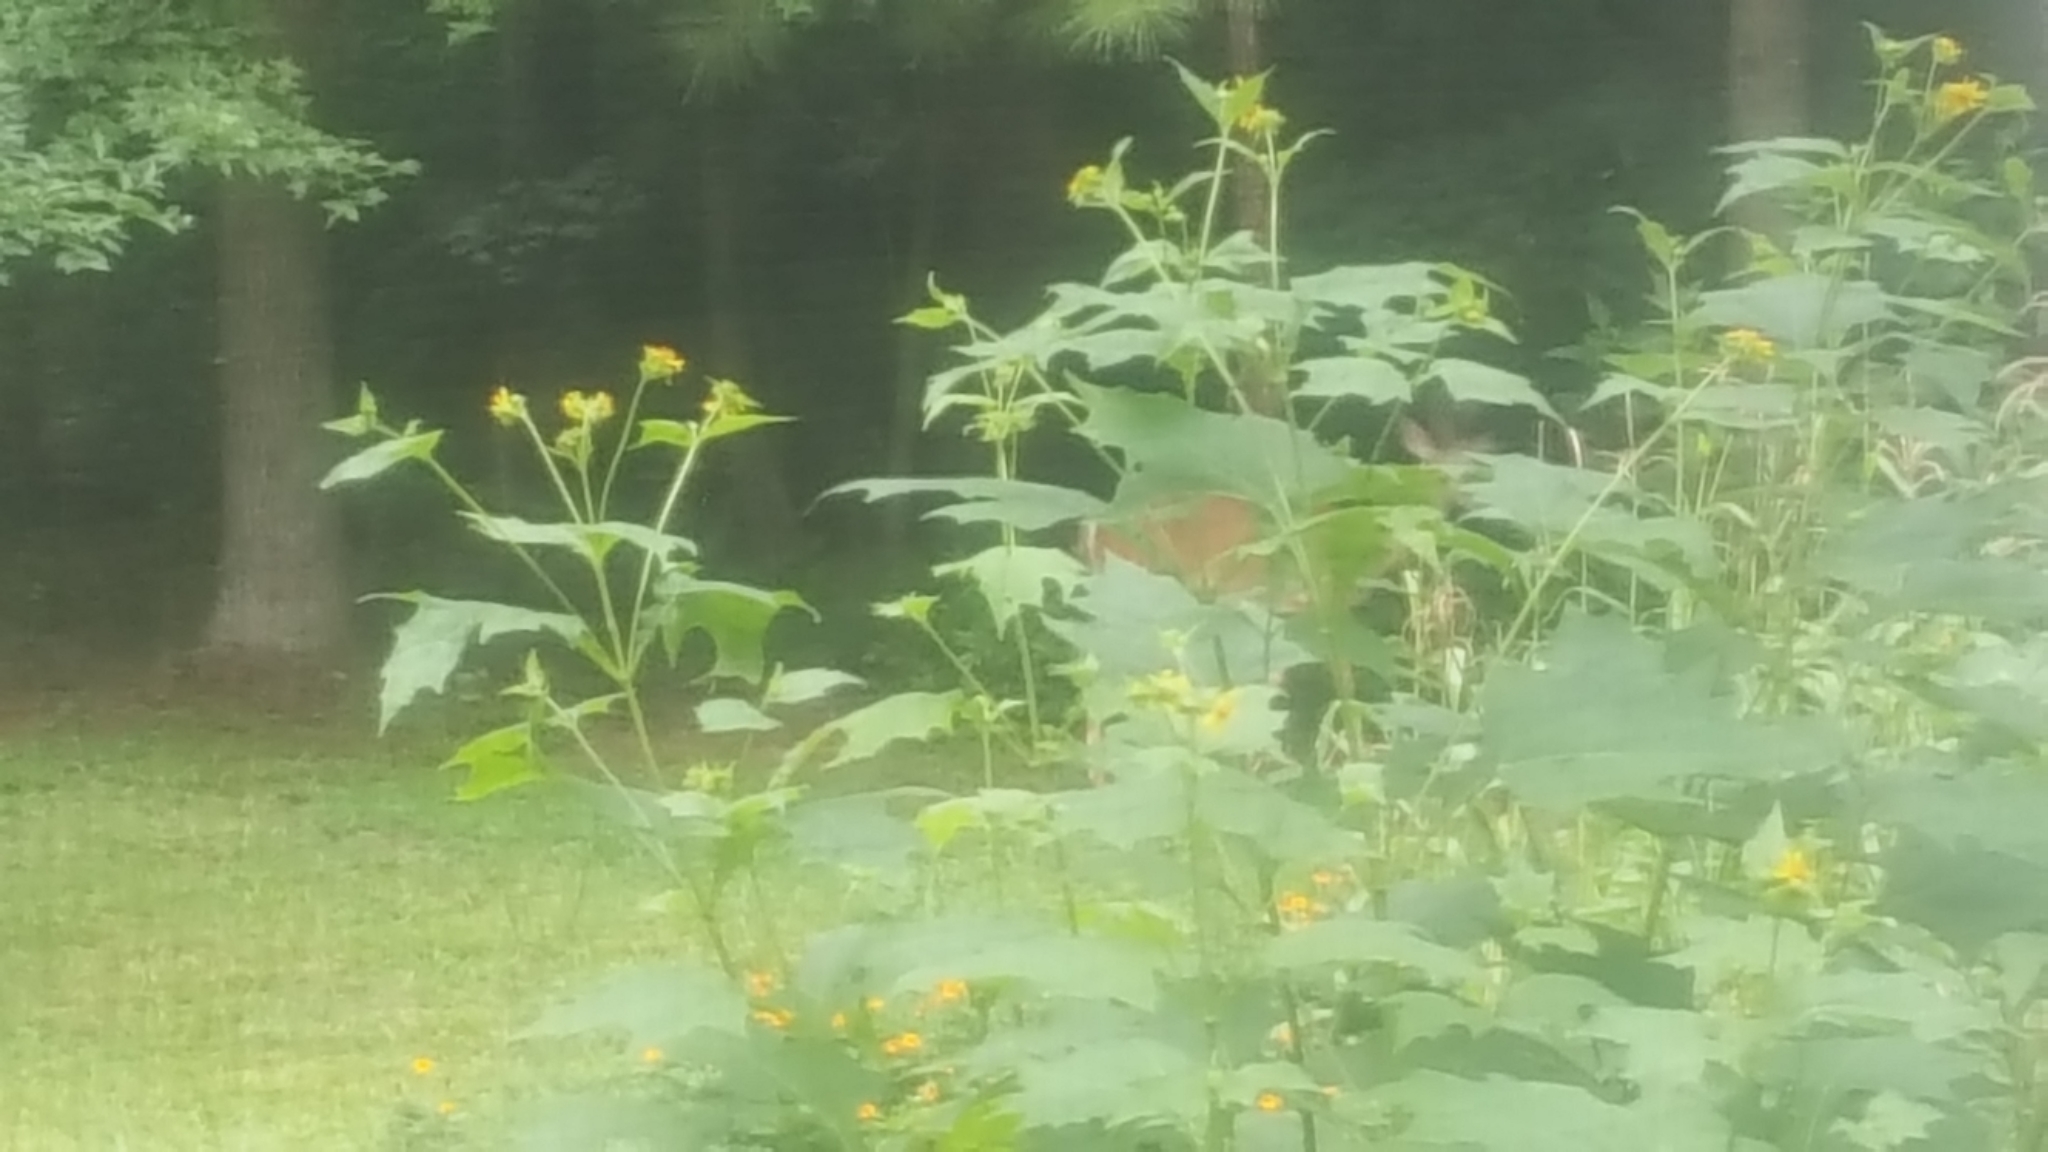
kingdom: Animalia
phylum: Chordata
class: Mammalia
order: Artiodactyla
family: Cervidae
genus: Odocoileus
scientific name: Odocoileus virginianus
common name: White-tailed deer
